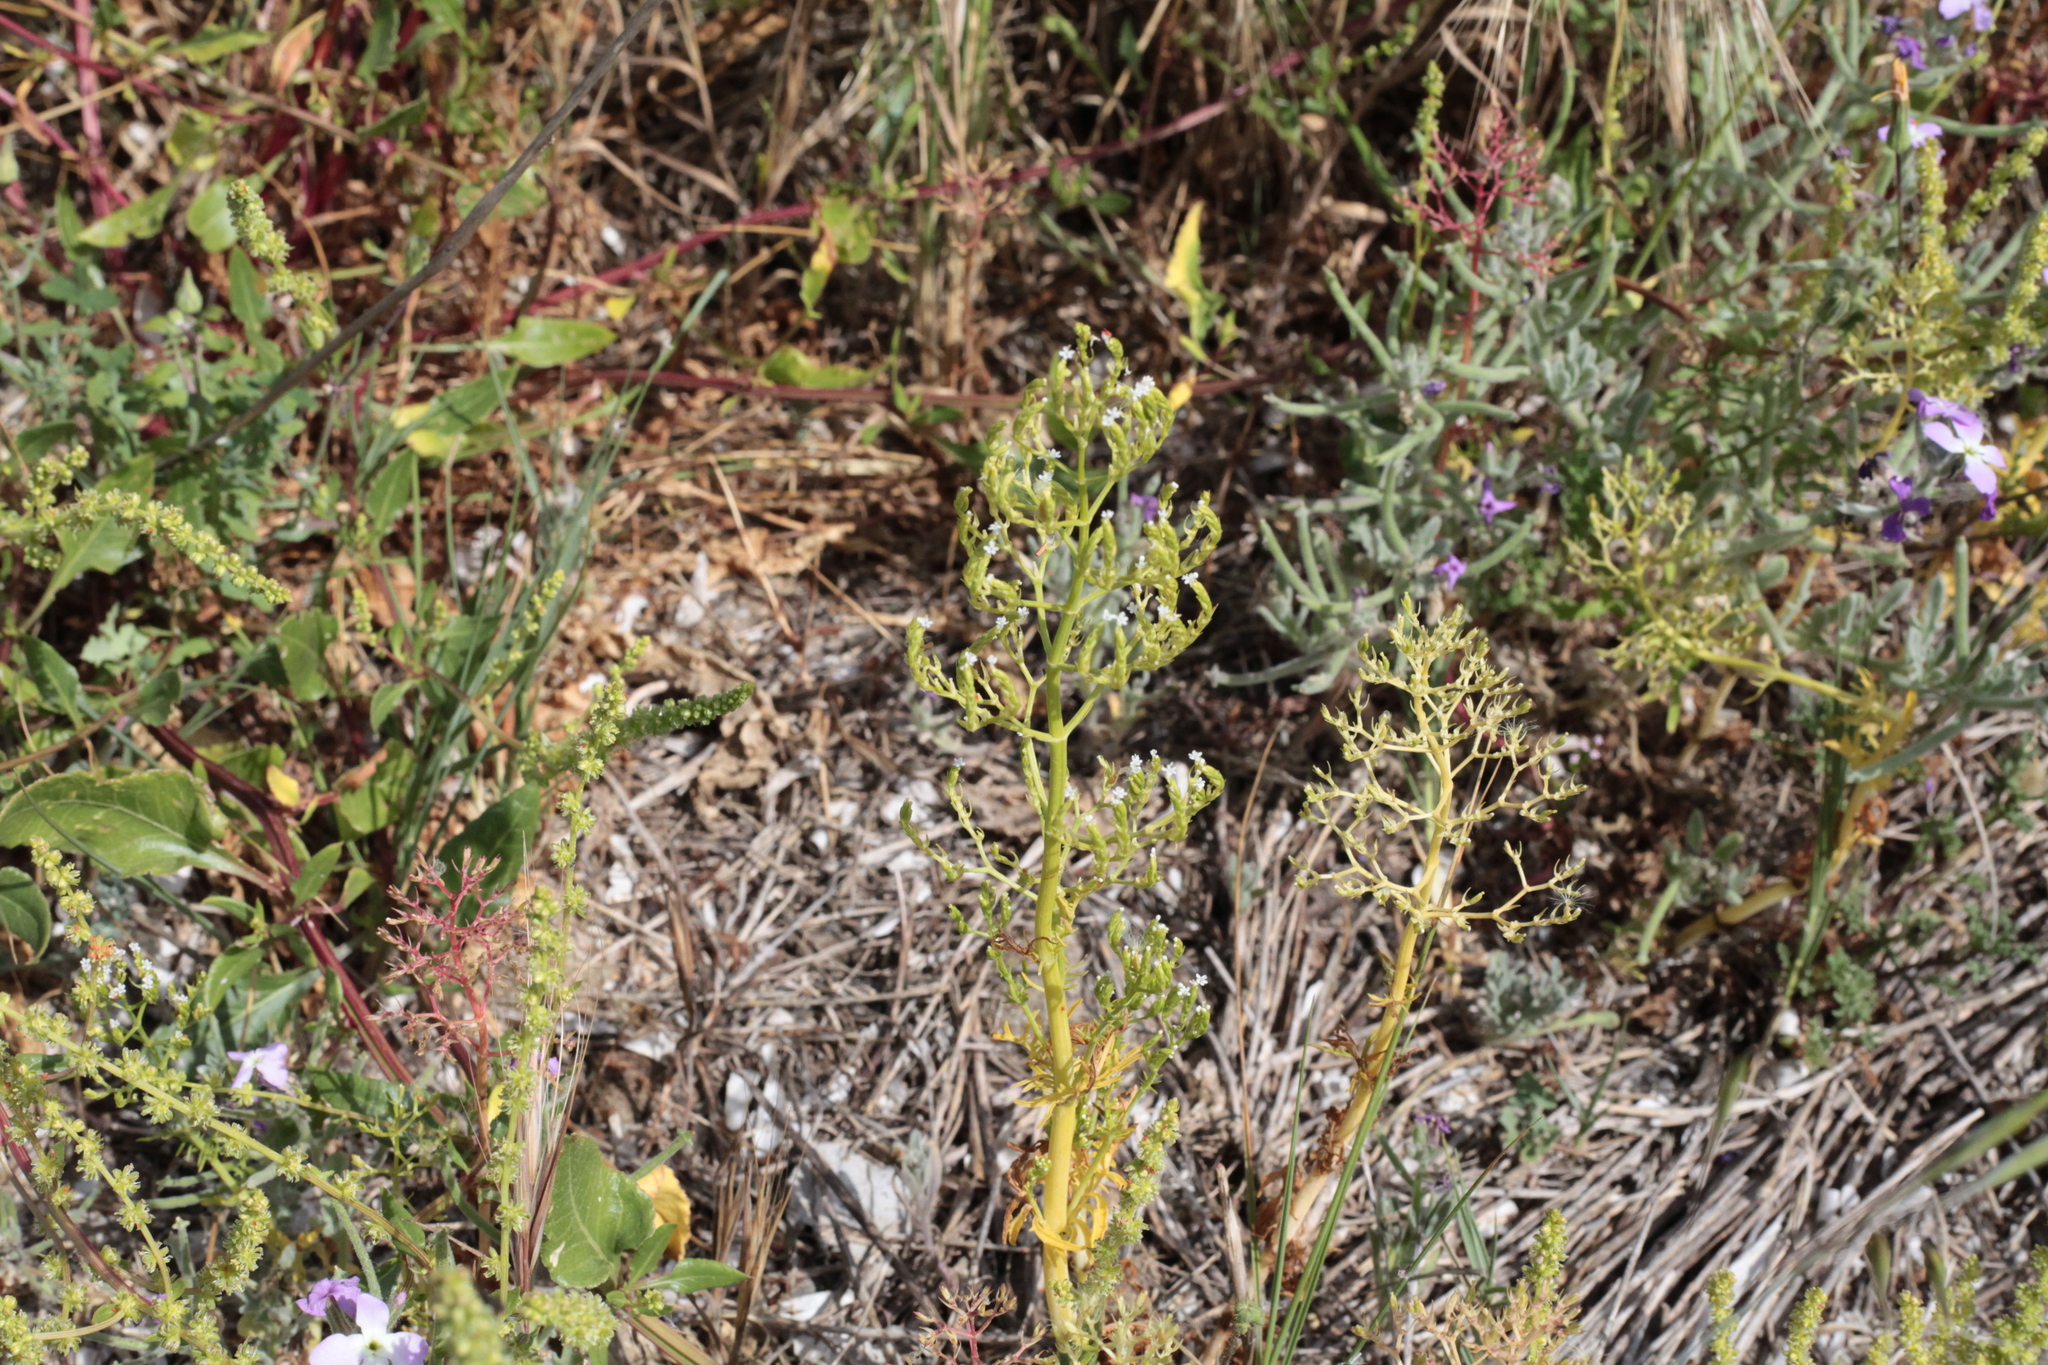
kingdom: Plantae
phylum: Tracheophyta
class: Magnoliopsida
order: Dipsacales
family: Caprifoliaceae
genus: Centranthus
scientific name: Centranthus calcitrapae
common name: Annual valerian
